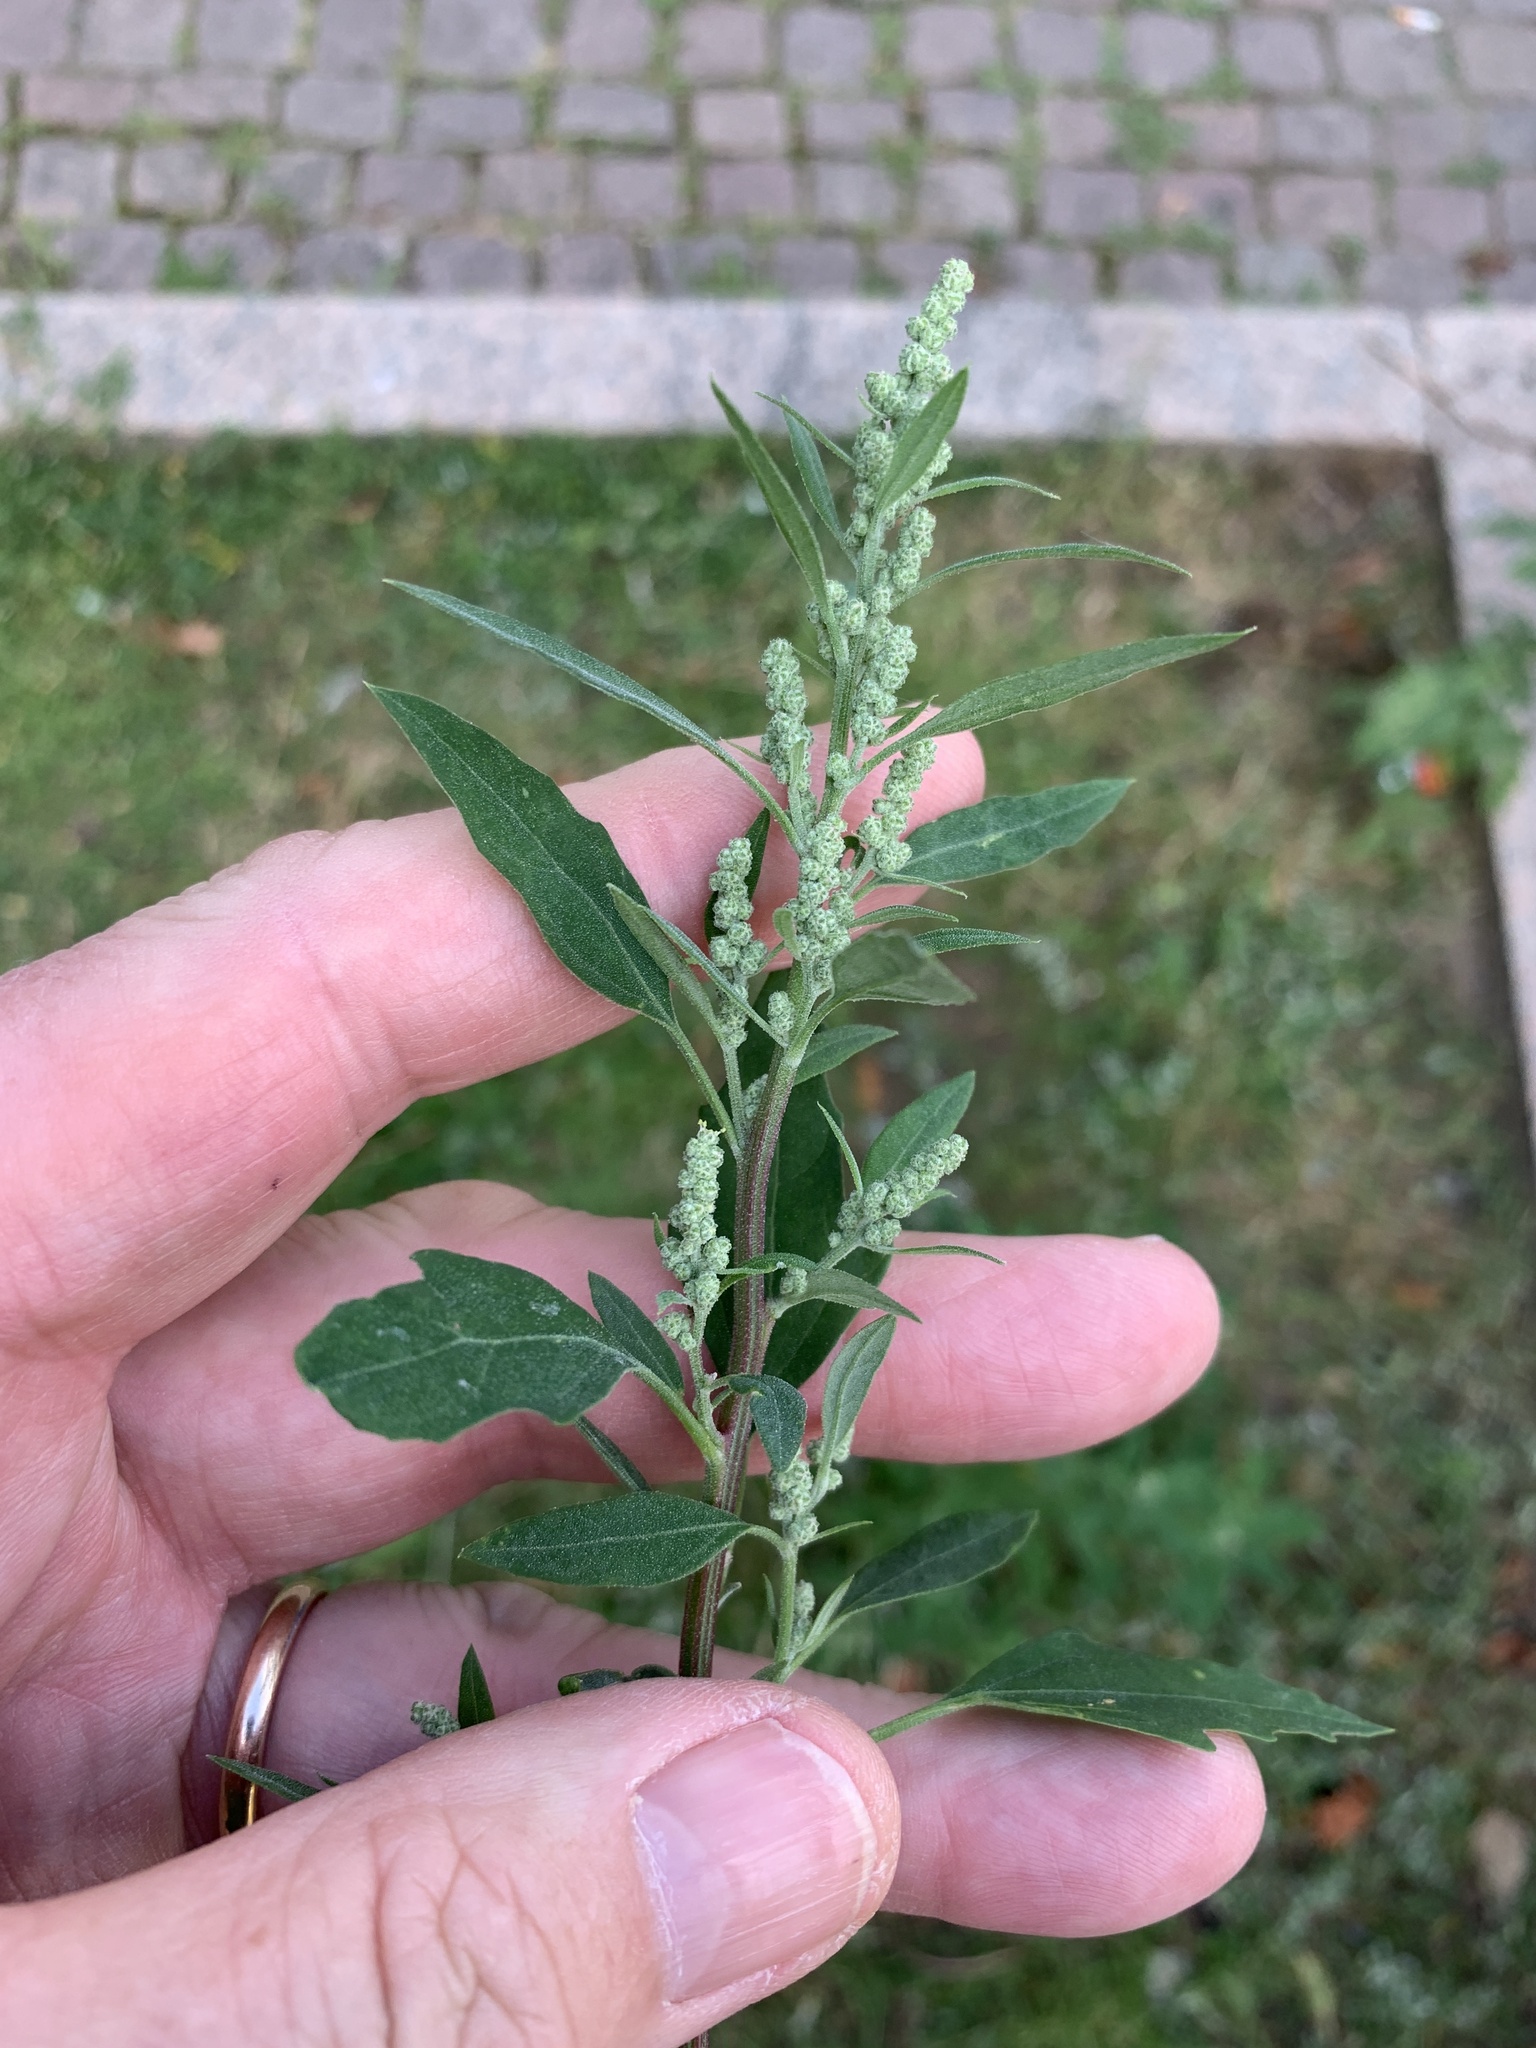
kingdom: Plantae
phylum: Tracheophyta
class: Magnoliopsida
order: Caryophyllales
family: Amaranthaceae
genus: Chenopodium
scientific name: Chenopodium album
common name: Fat-hen
